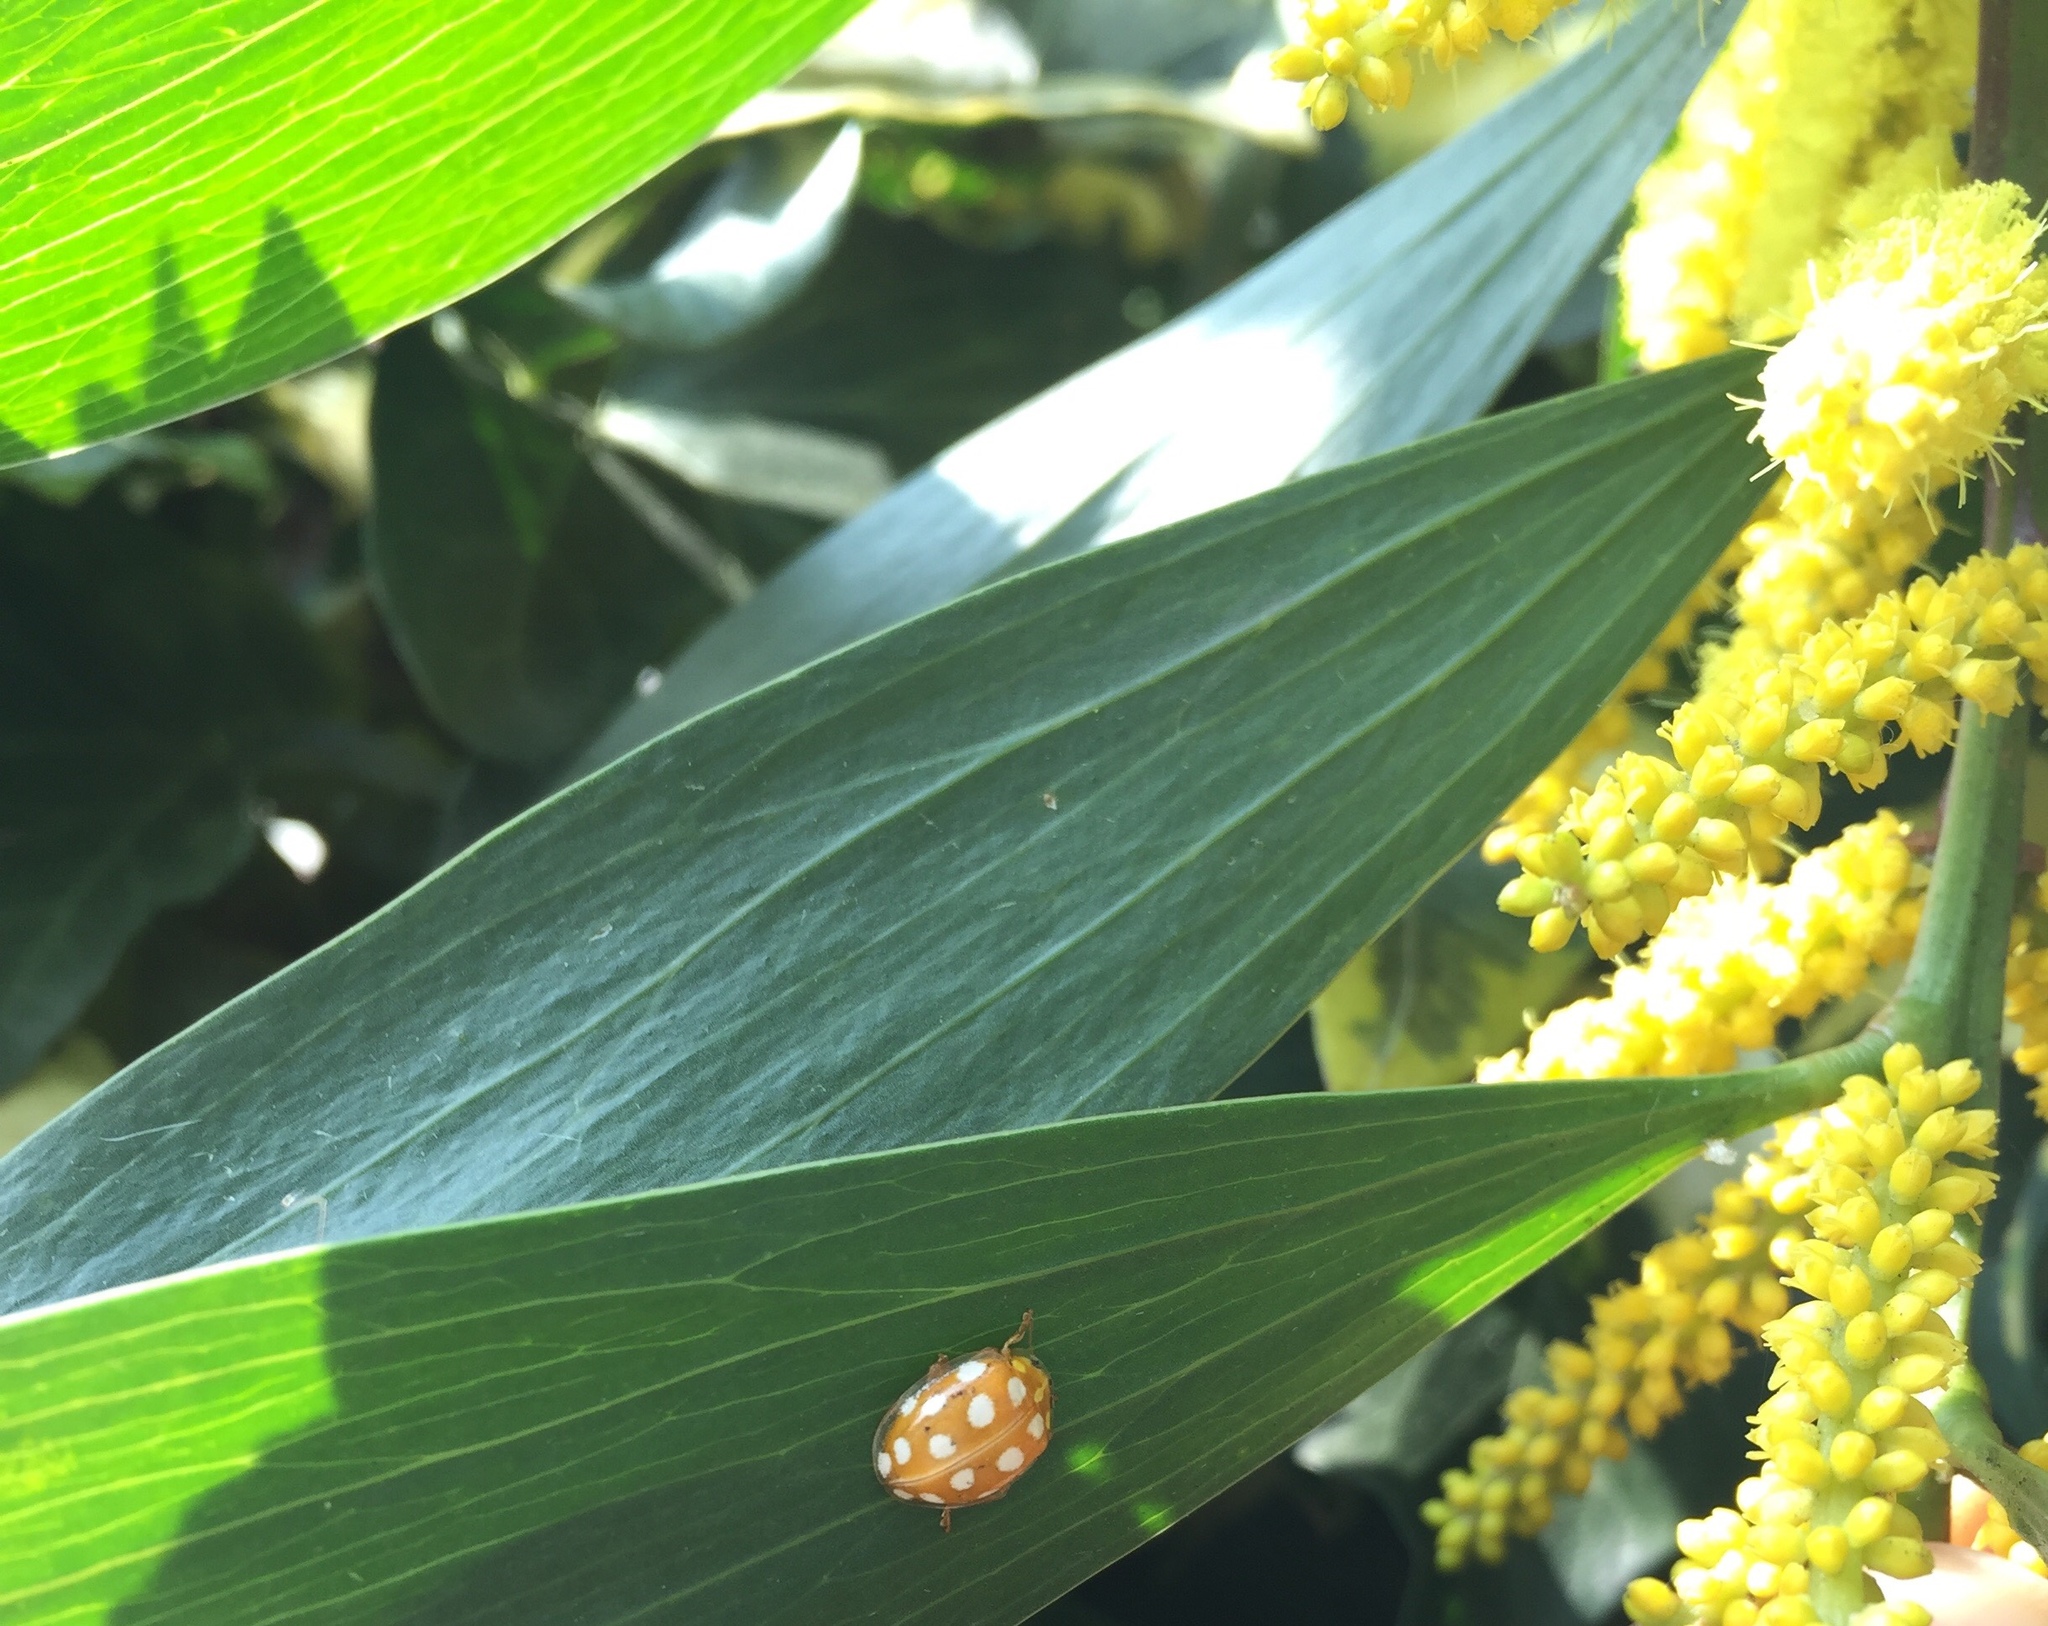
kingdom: Animalia
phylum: Arthropoda
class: Insecta
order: Coleoptera
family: Coccinellidae
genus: Halyzia
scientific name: Halyzia sedecimguttata
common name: Orange ladybird
